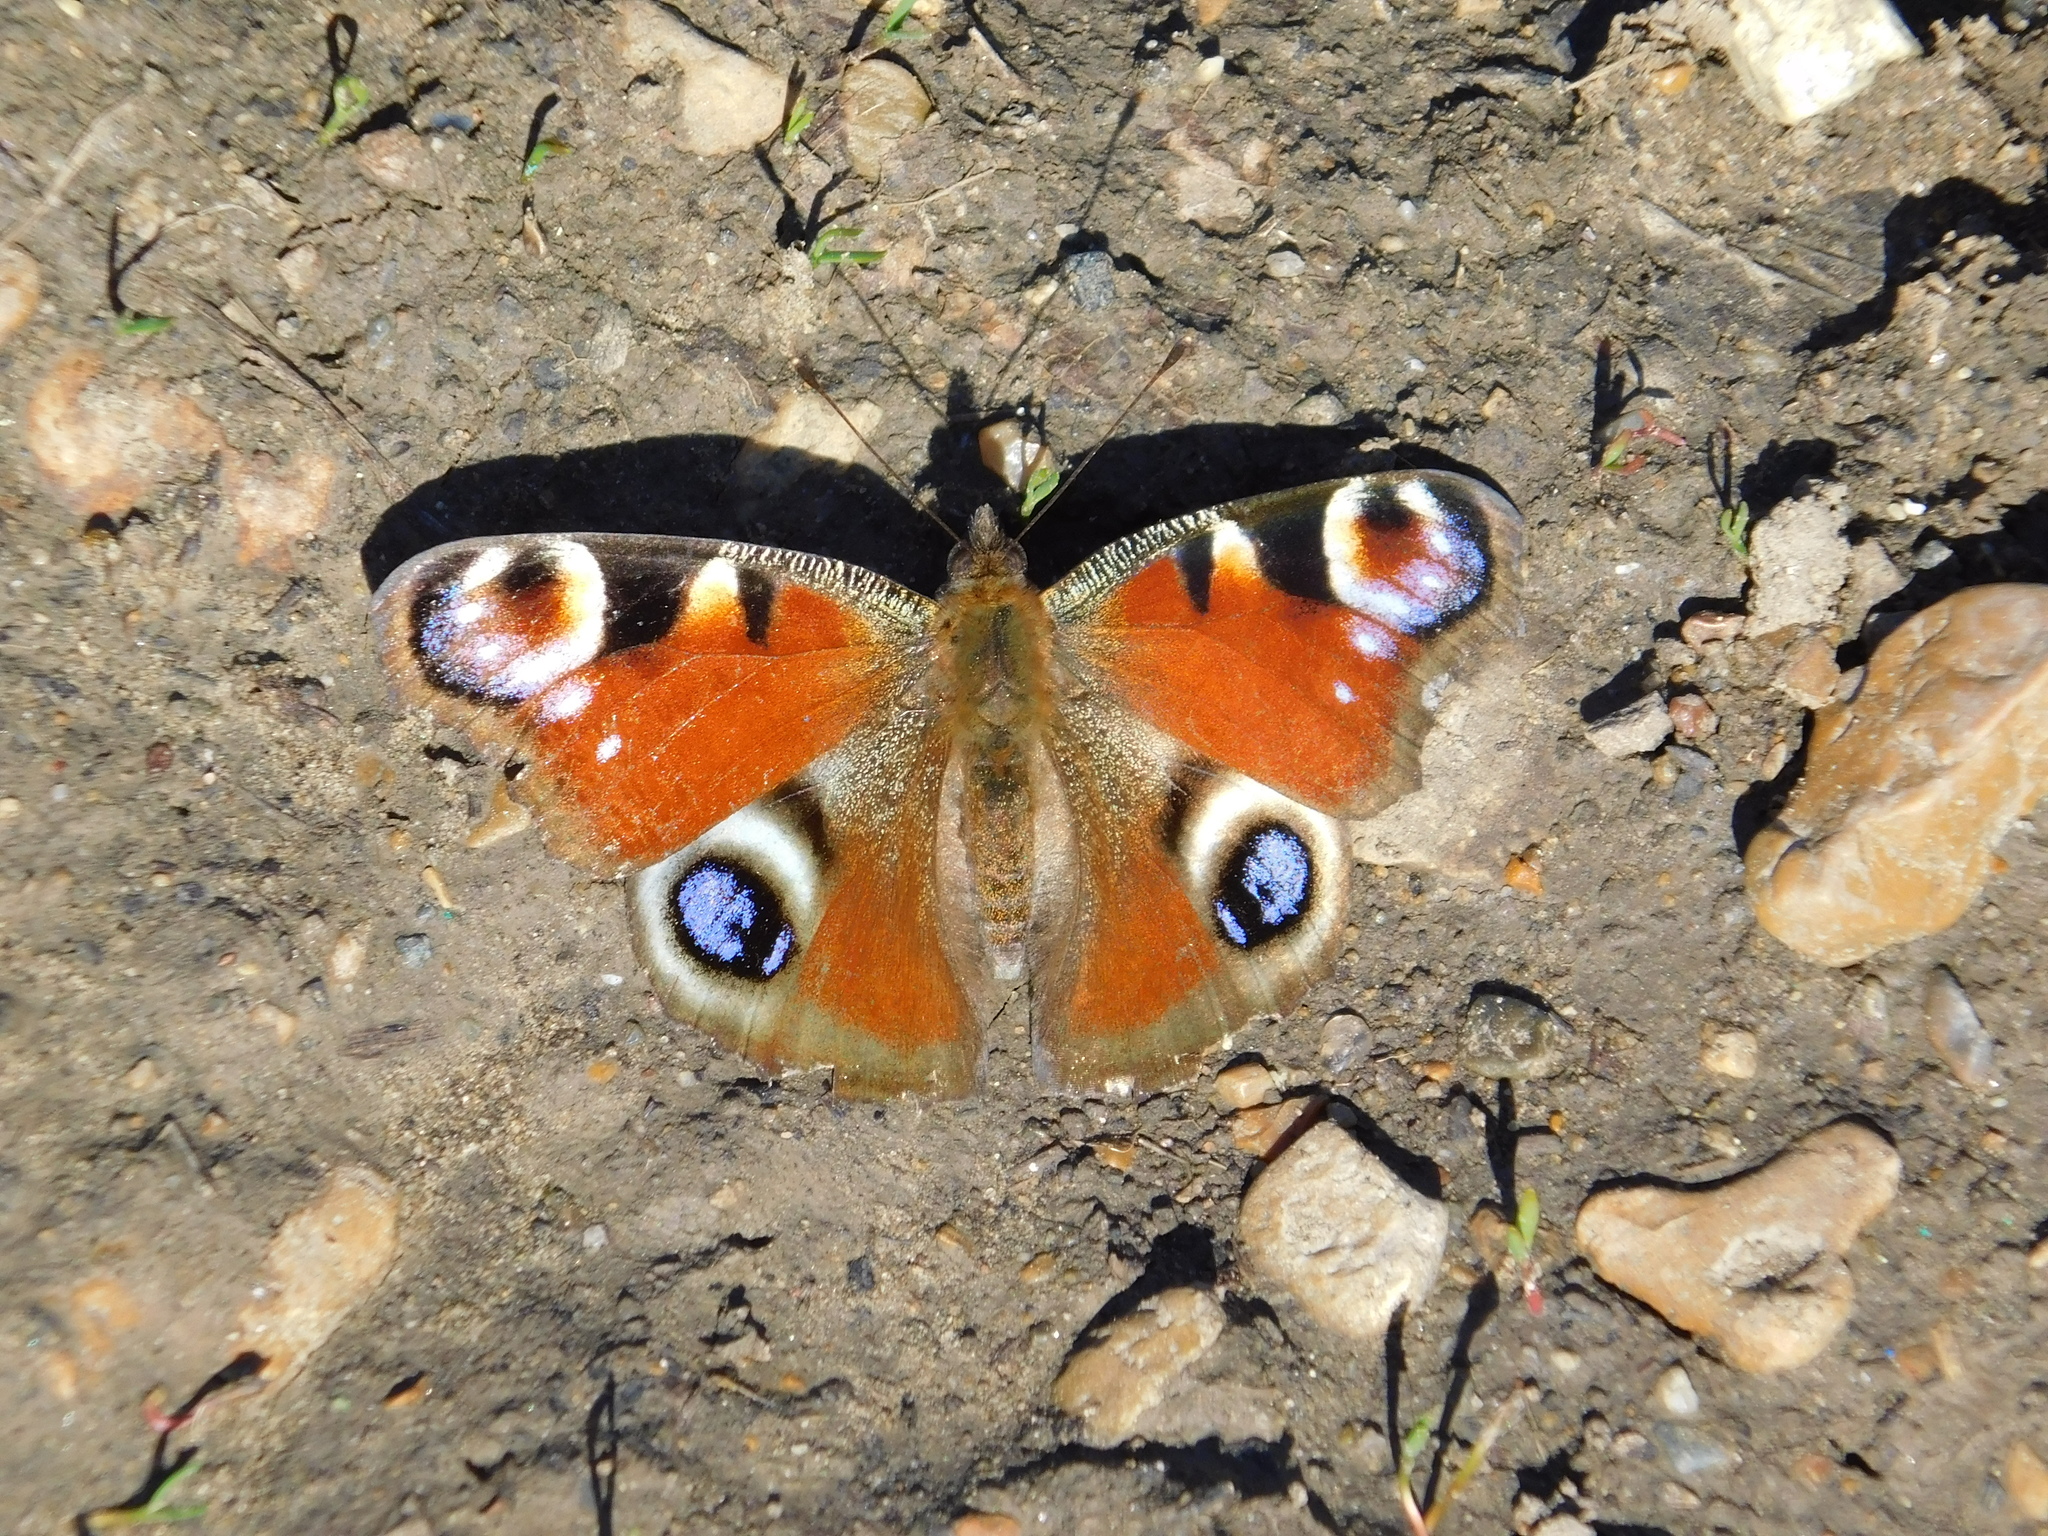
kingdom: Animalia
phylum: Arthropoda
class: Insecta
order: Lepidoptera
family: Nymphalidae
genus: Aglais
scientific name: Aglais io
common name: Peacock
